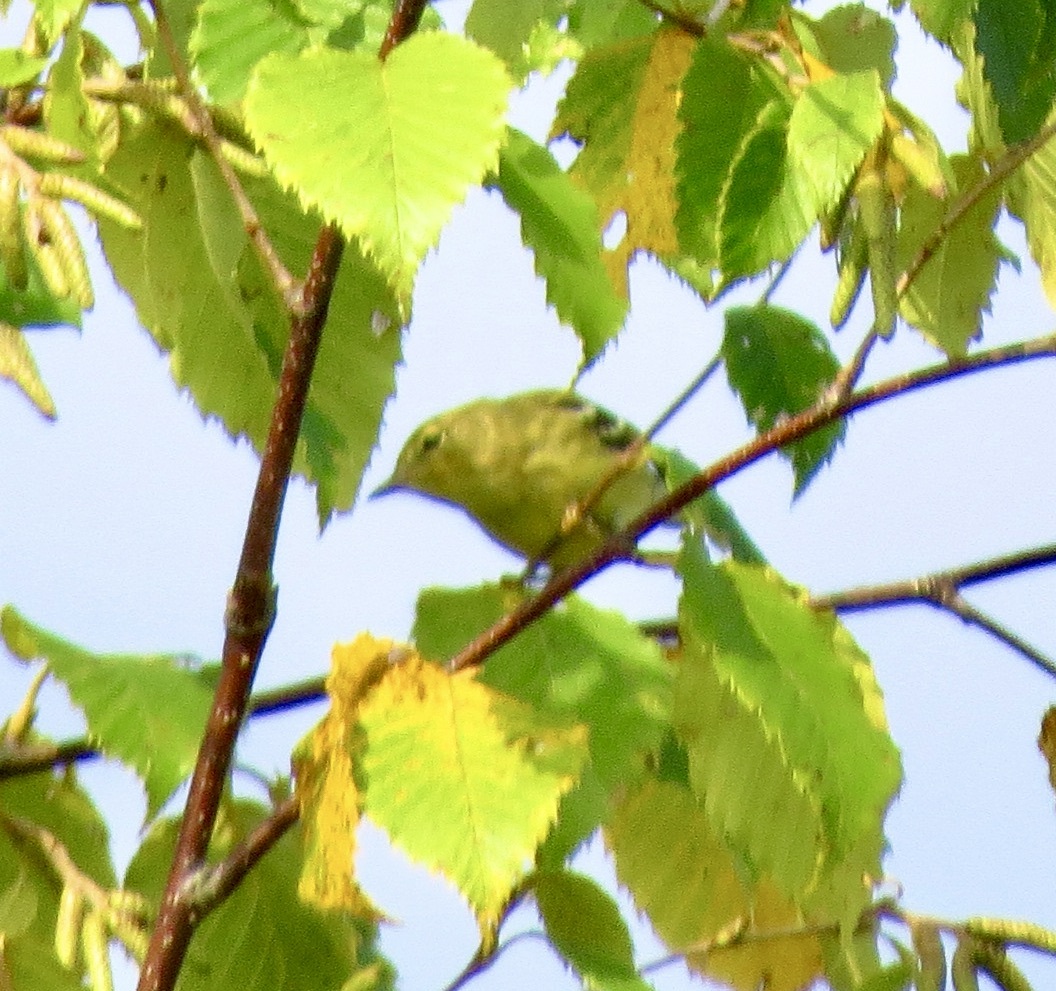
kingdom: Animalia
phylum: Chordata
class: Aves
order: Passeriformes
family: Parulidae
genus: Setophaga
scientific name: Setophaga striata
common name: Blackpoll warbler
